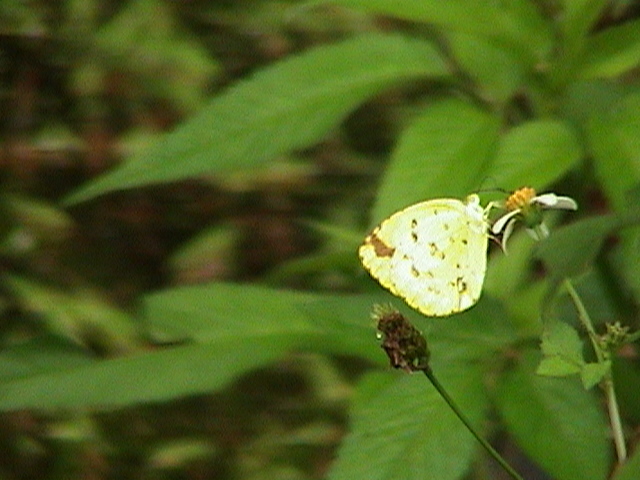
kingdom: Animalia
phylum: Arthropoda
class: Insecta
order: Lepidoptera
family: Pieridae
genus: Eurema
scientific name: Eurema hecabe
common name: Pale grass yellow
